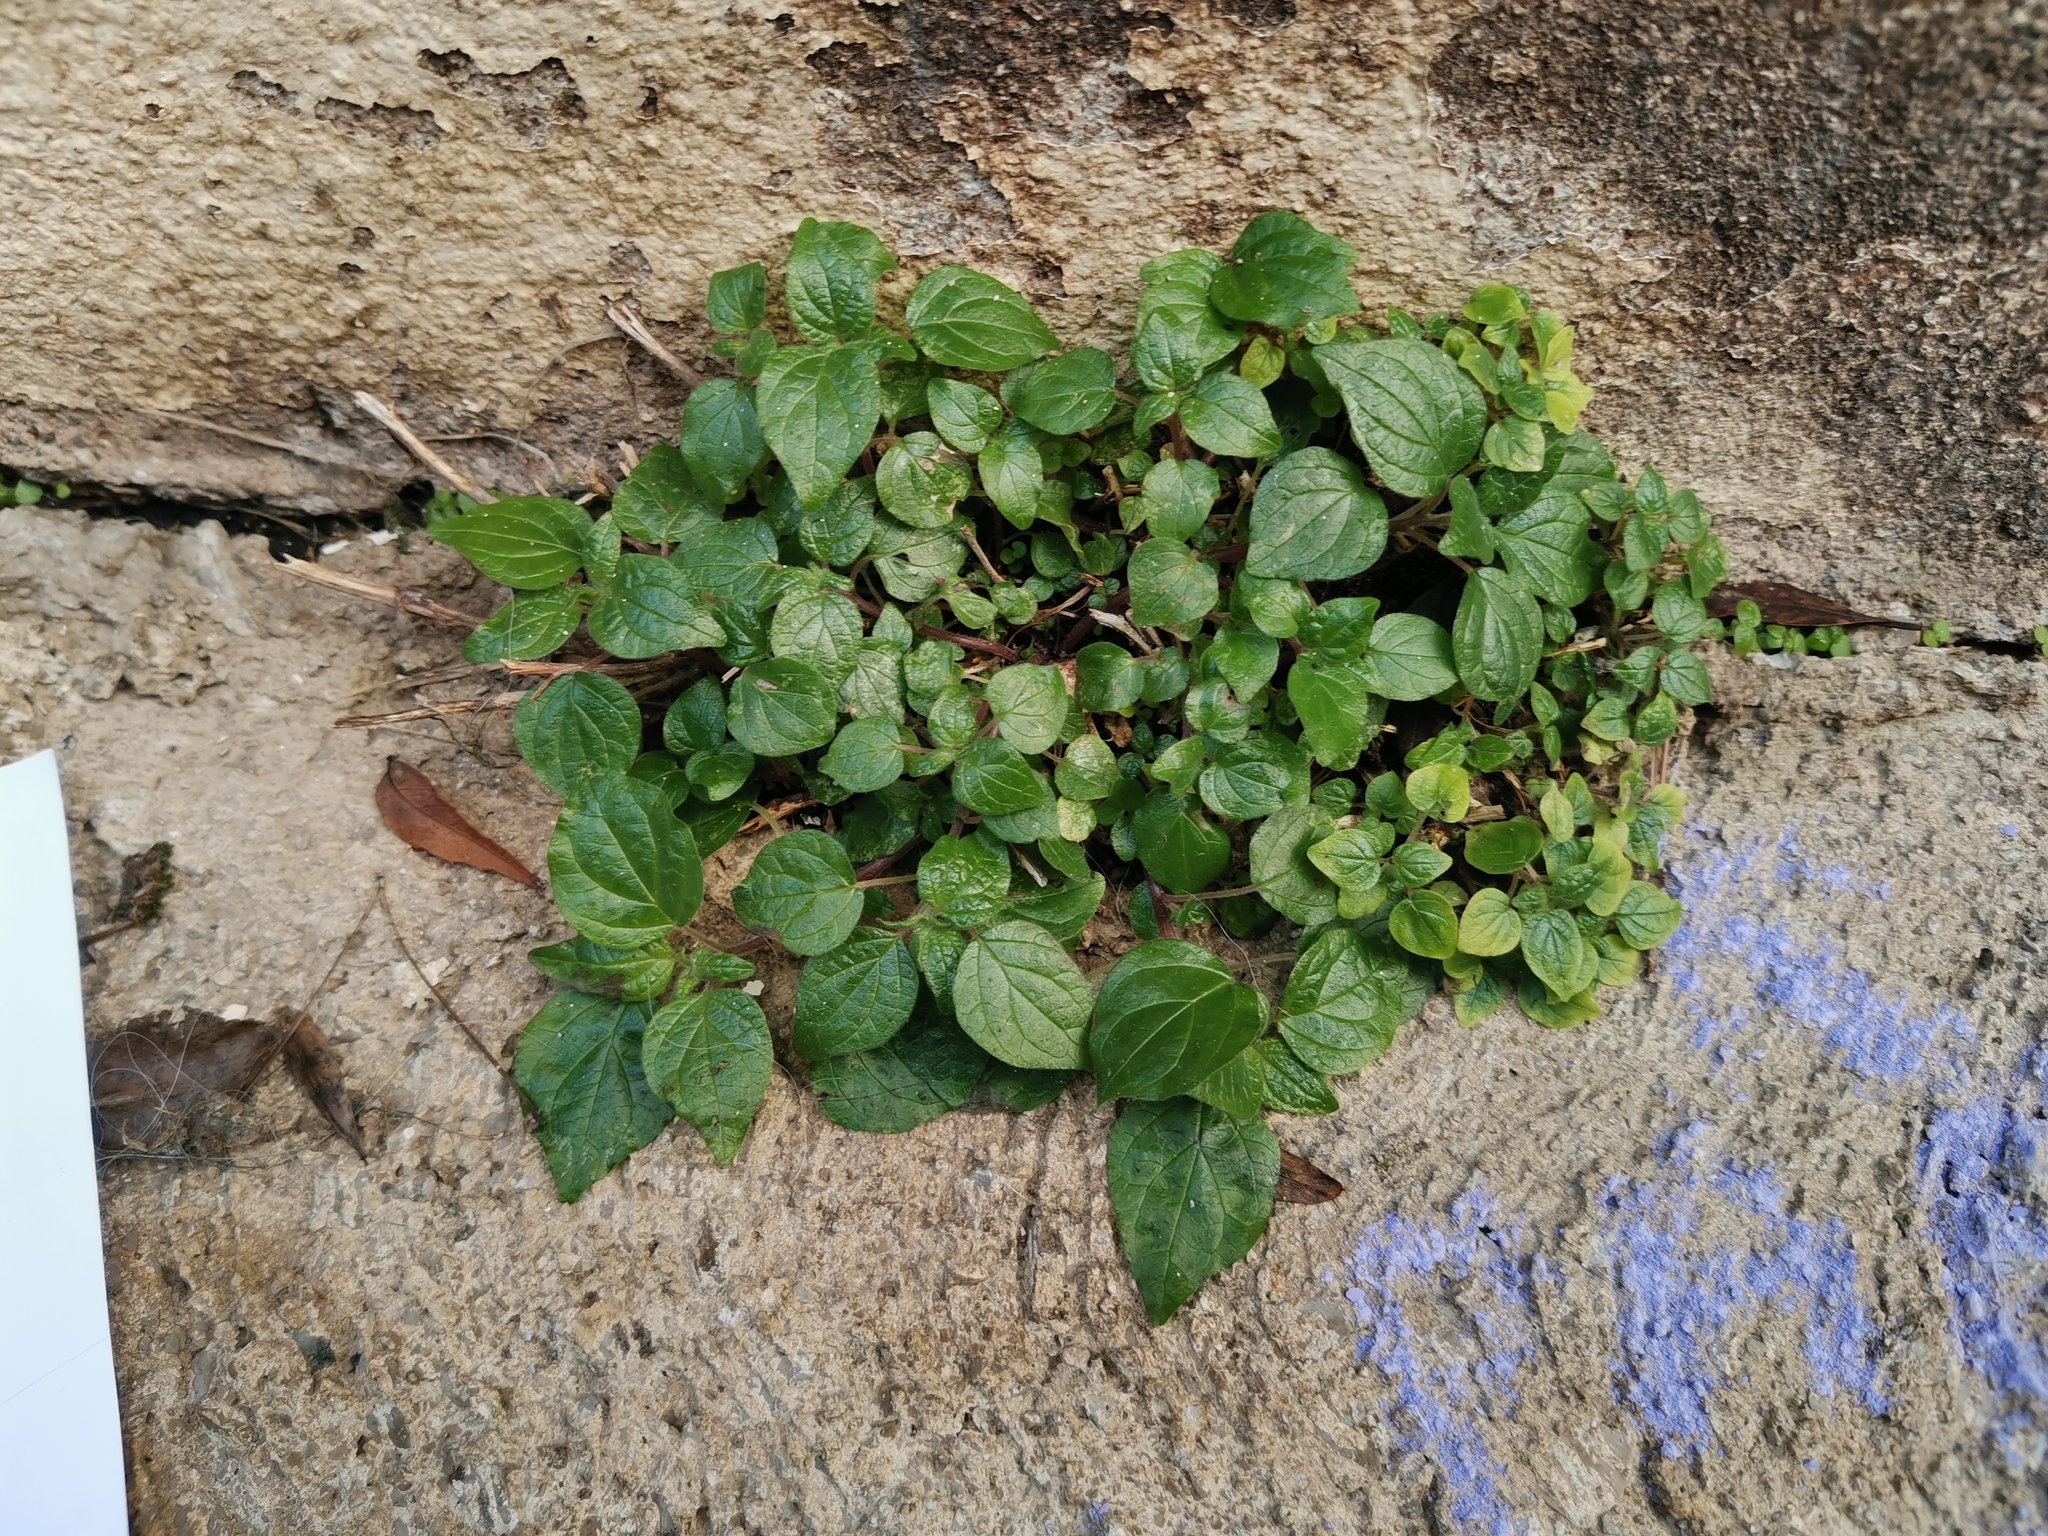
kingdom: Plantae
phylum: Tracheophyta
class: Magnoliopsida
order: Rosales
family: Urticaceae
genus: Parietaria
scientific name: Parietaria judaica
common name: Pellitory-of-the-wall
